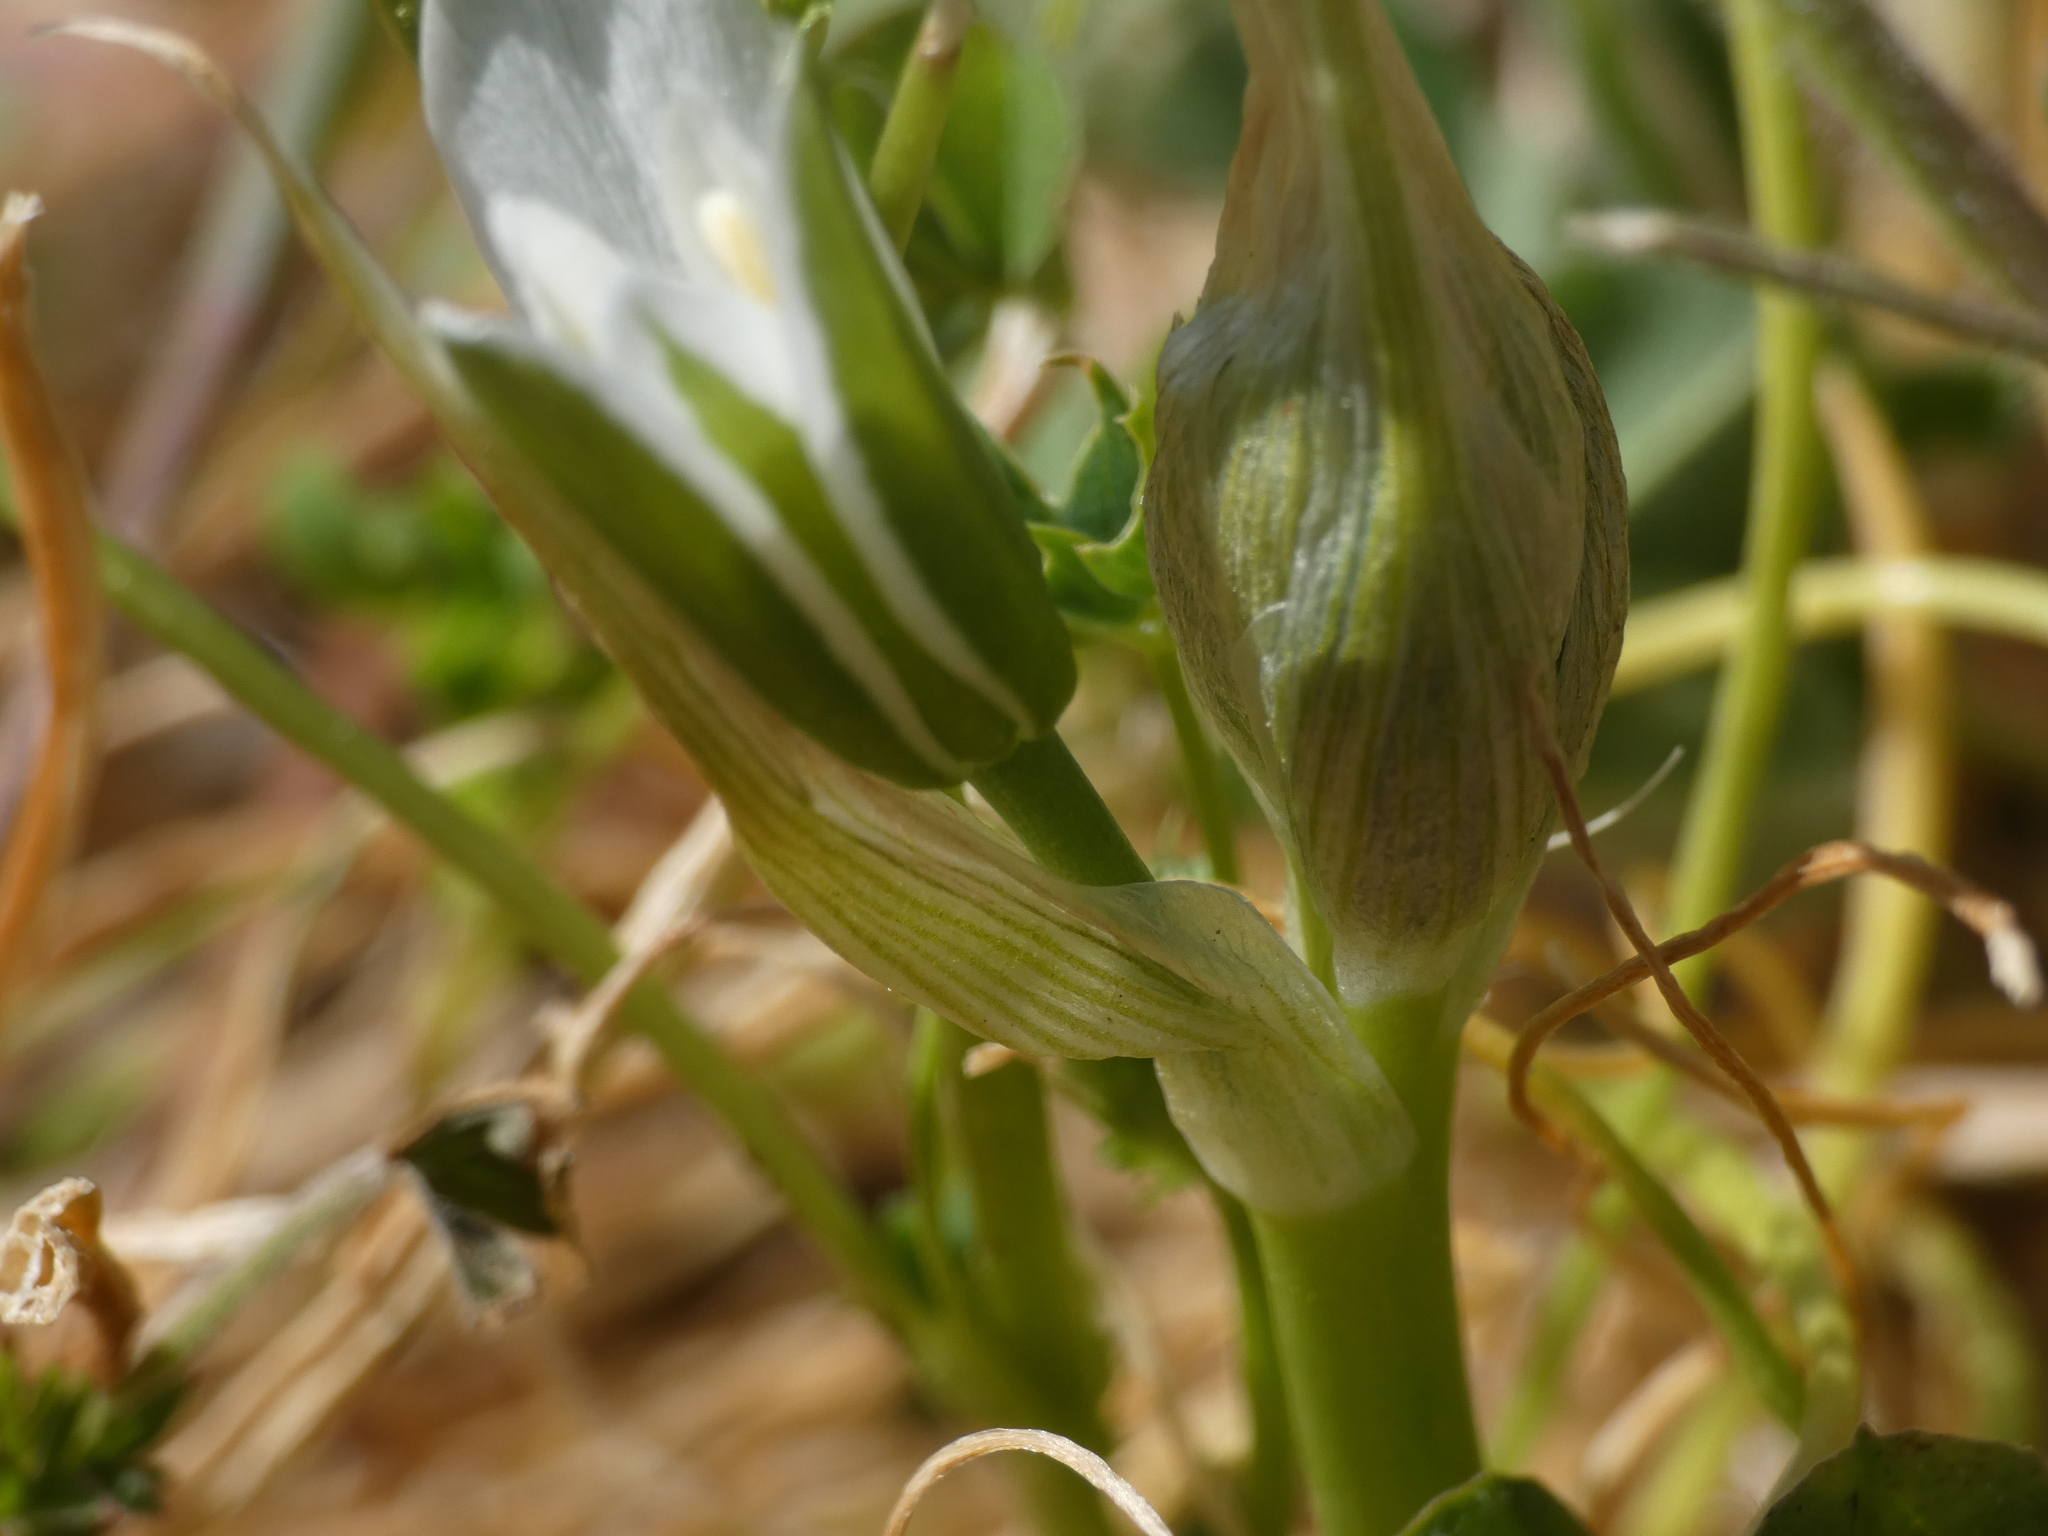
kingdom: Plantae
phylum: Tracheophyta
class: Liliopsida
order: Asparagales
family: Asparagaceae
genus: Ornithogalum
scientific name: Ornithogalum umbellatum
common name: Garden star-of-bethlehem
